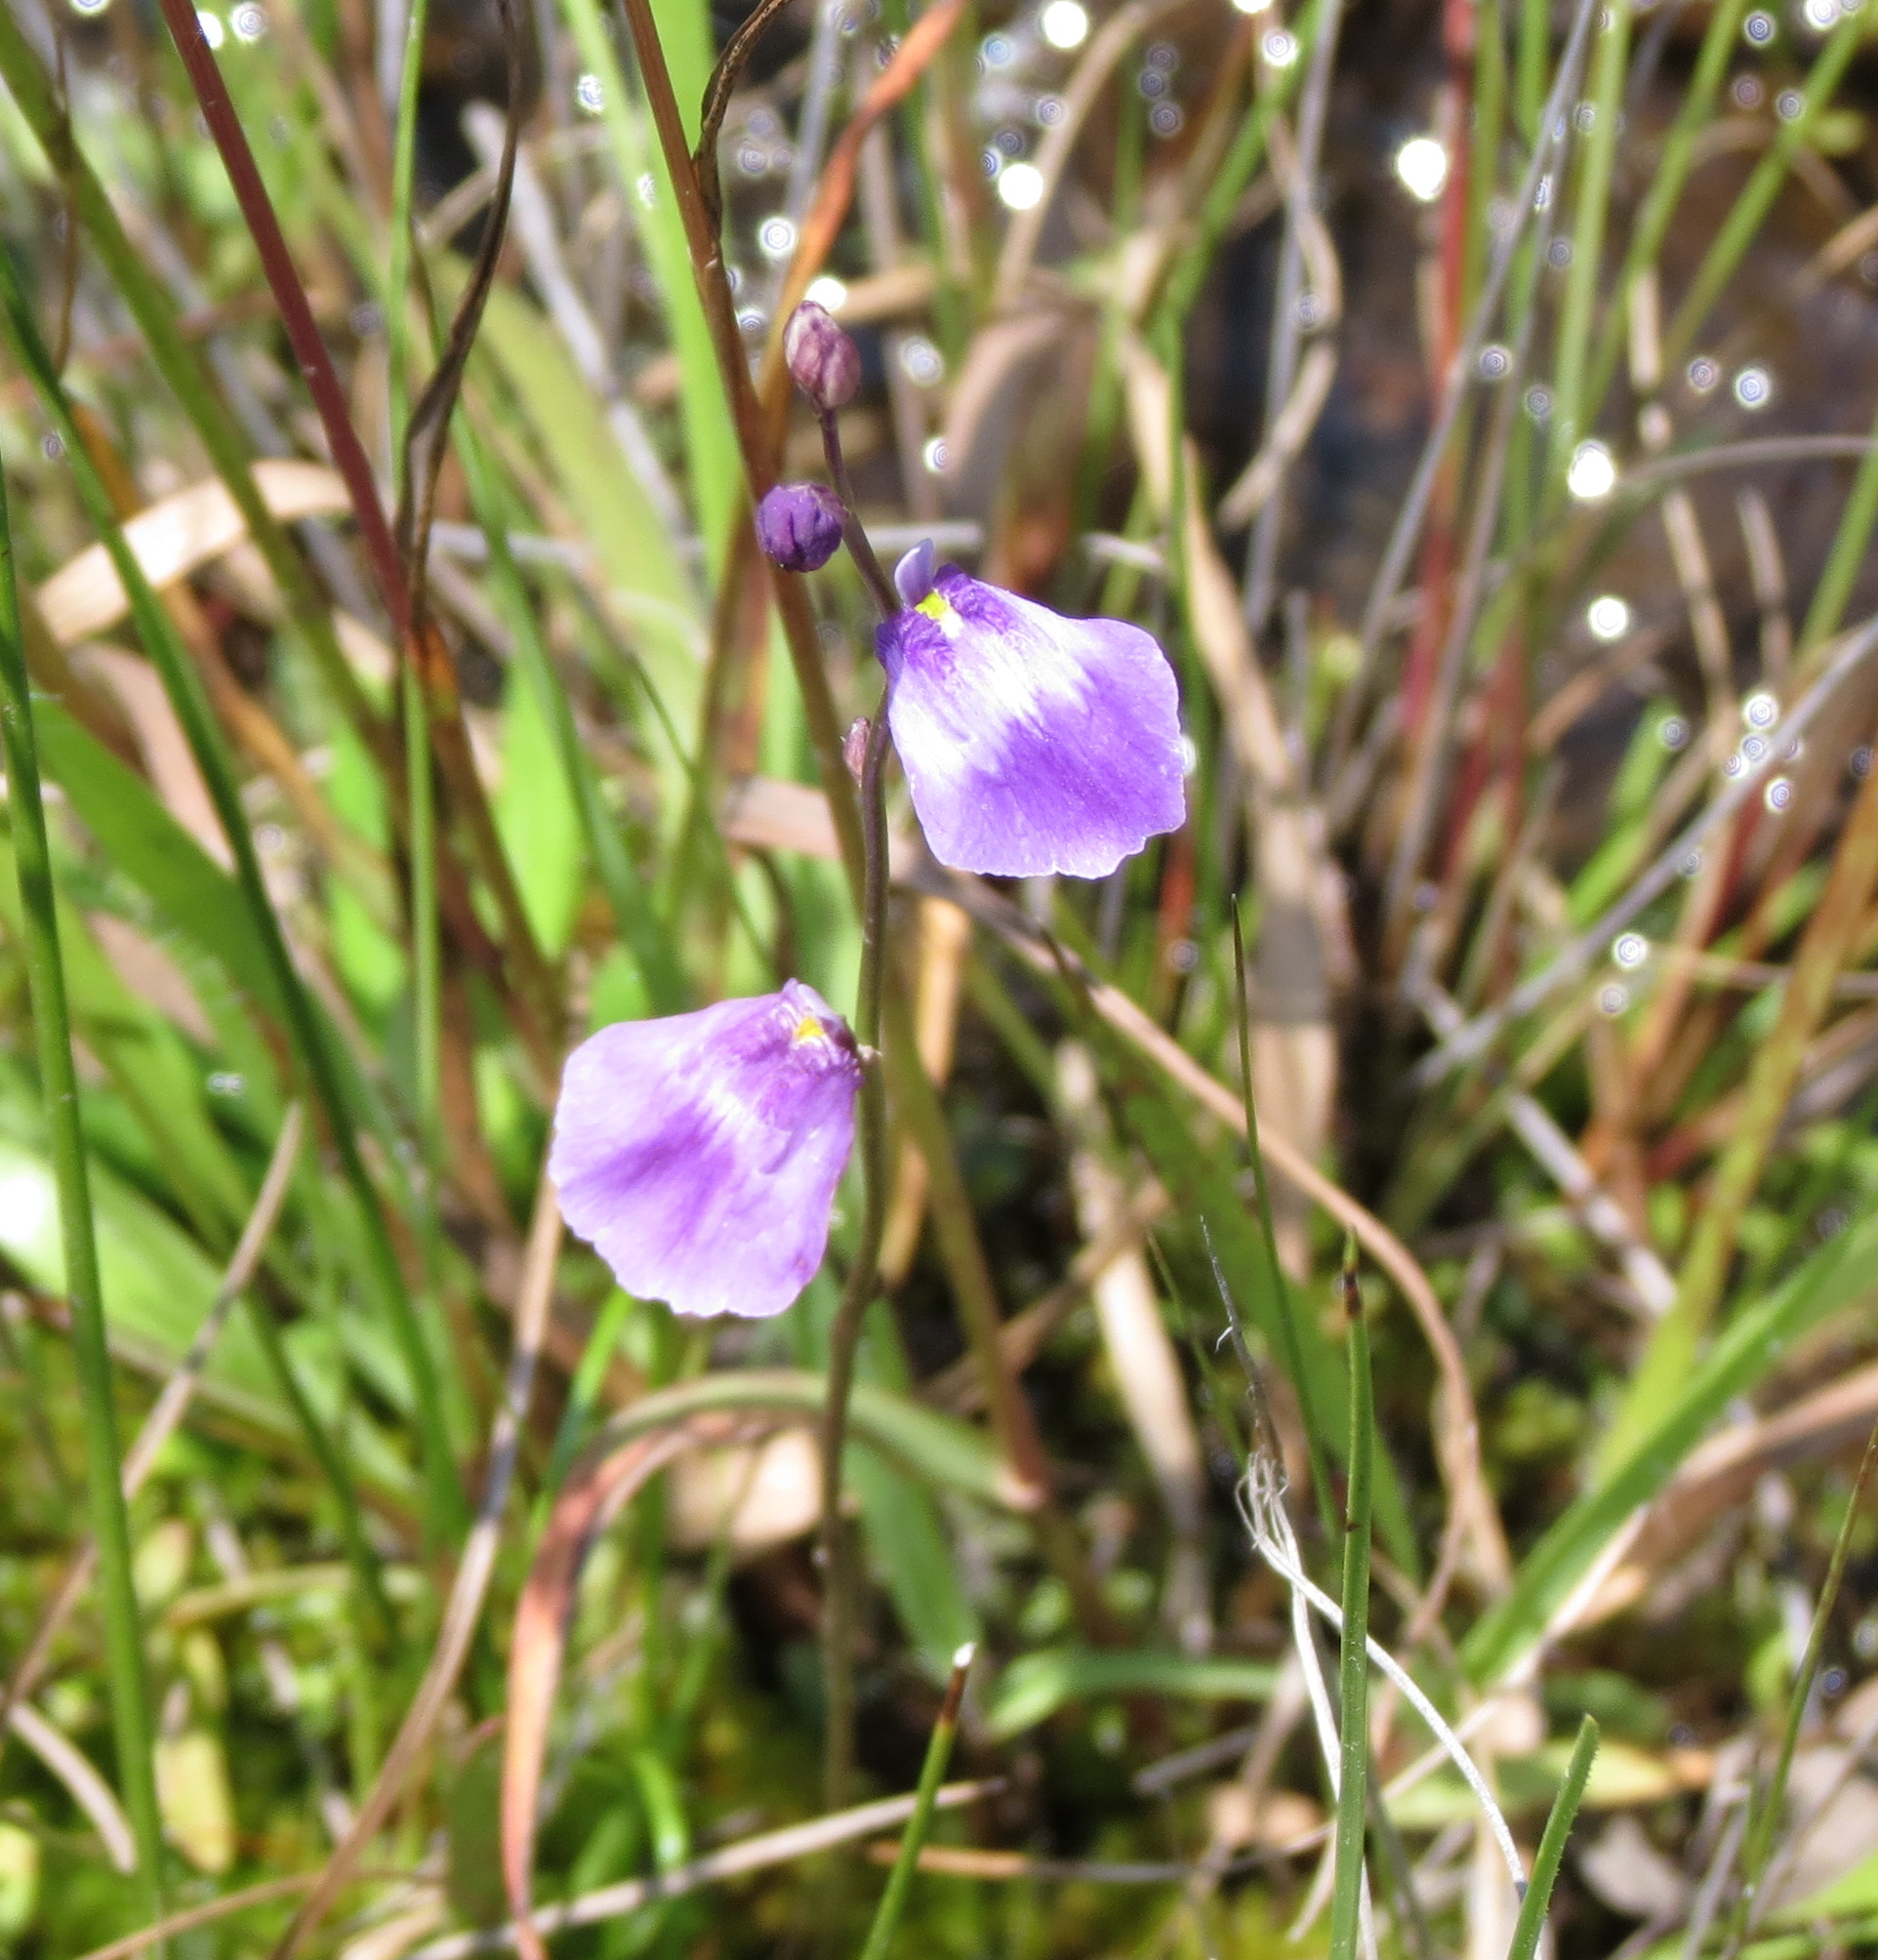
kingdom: Plantae
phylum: Tracheophyta
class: Magnoliopsida
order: Lamiales
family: Lentibulariaceae
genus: Utricularia
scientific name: Utricularia livida
